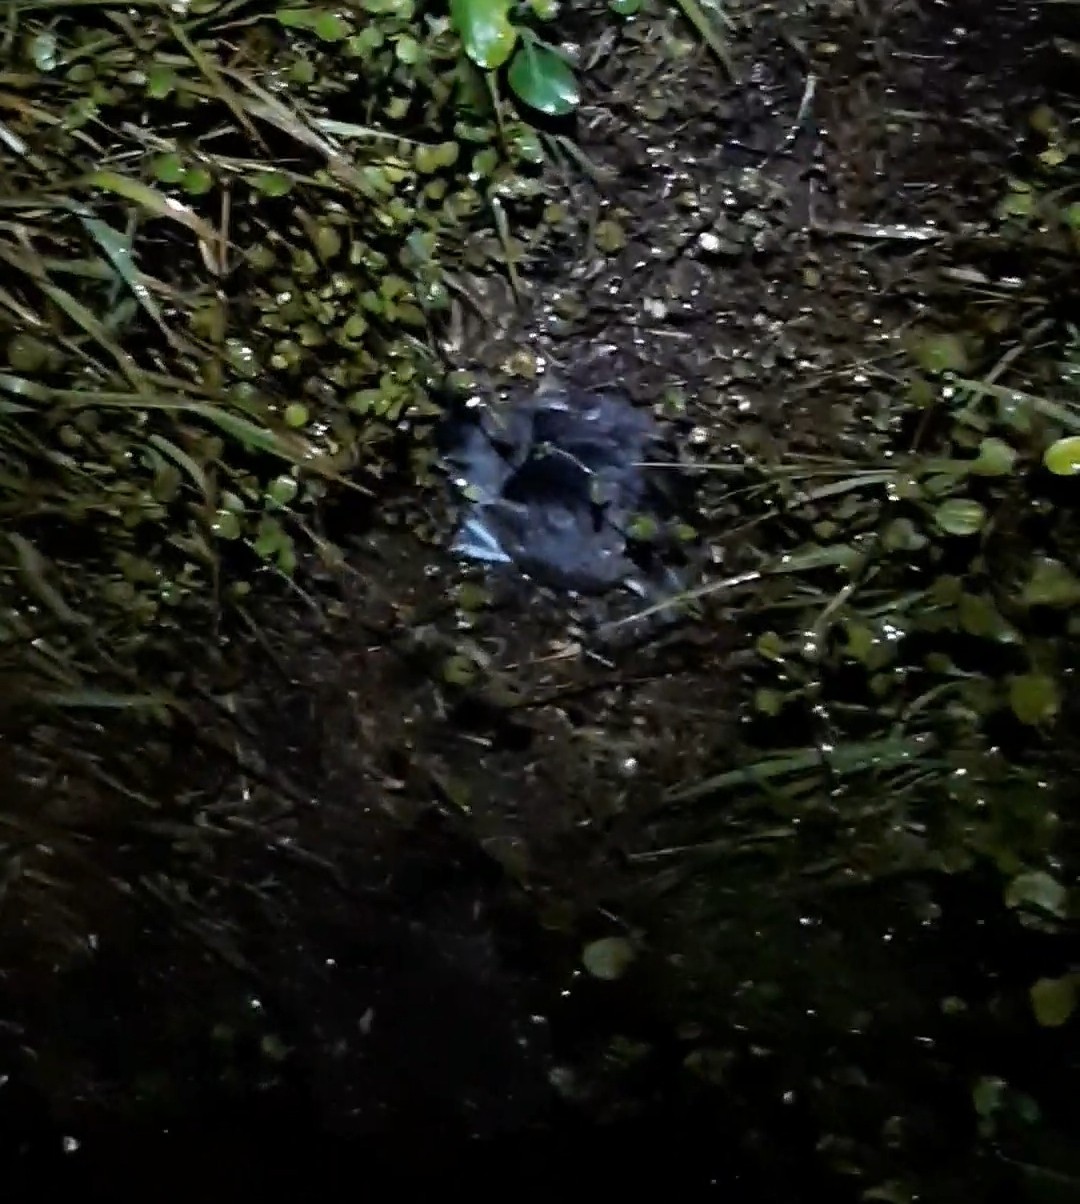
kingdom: Animalia
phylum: Chordata
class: Aves
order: Procellariiformes
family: Pelecanoididae
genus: Pelecanoides
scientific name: Pelecanoides urinatrix
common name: Common diving-petrel
